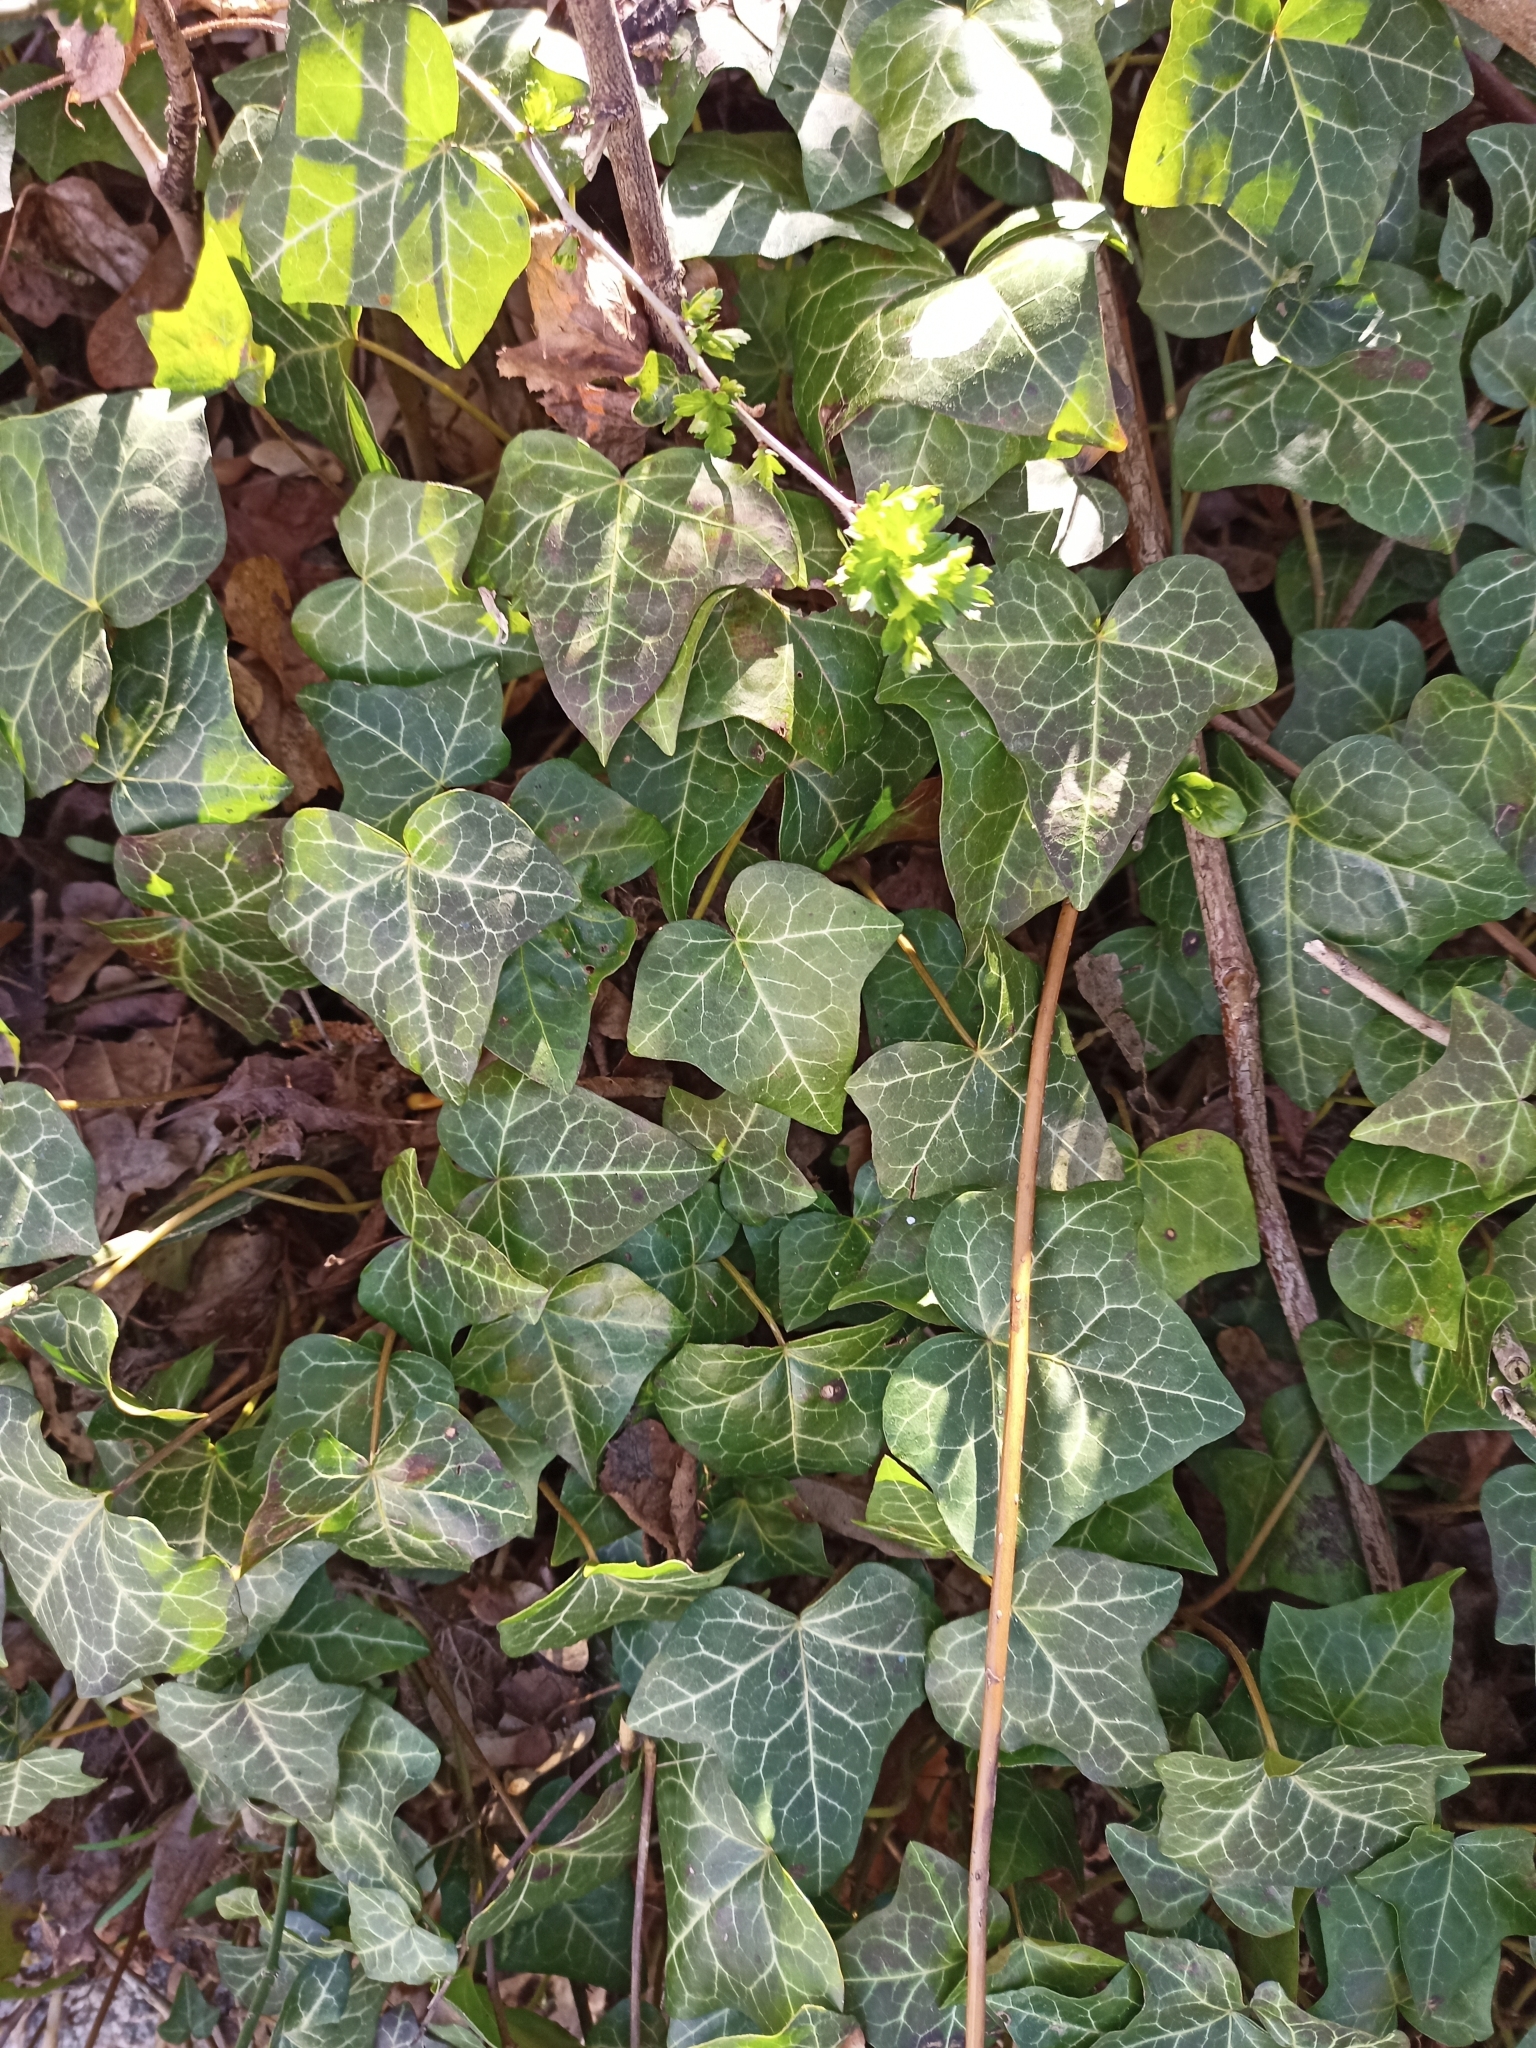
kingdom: Plantae
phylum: Tracheophyta
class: Magnoliopsida
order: Apiales
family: Araliaceae
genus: Hedera
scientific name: Hedera helix
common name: Ivy
